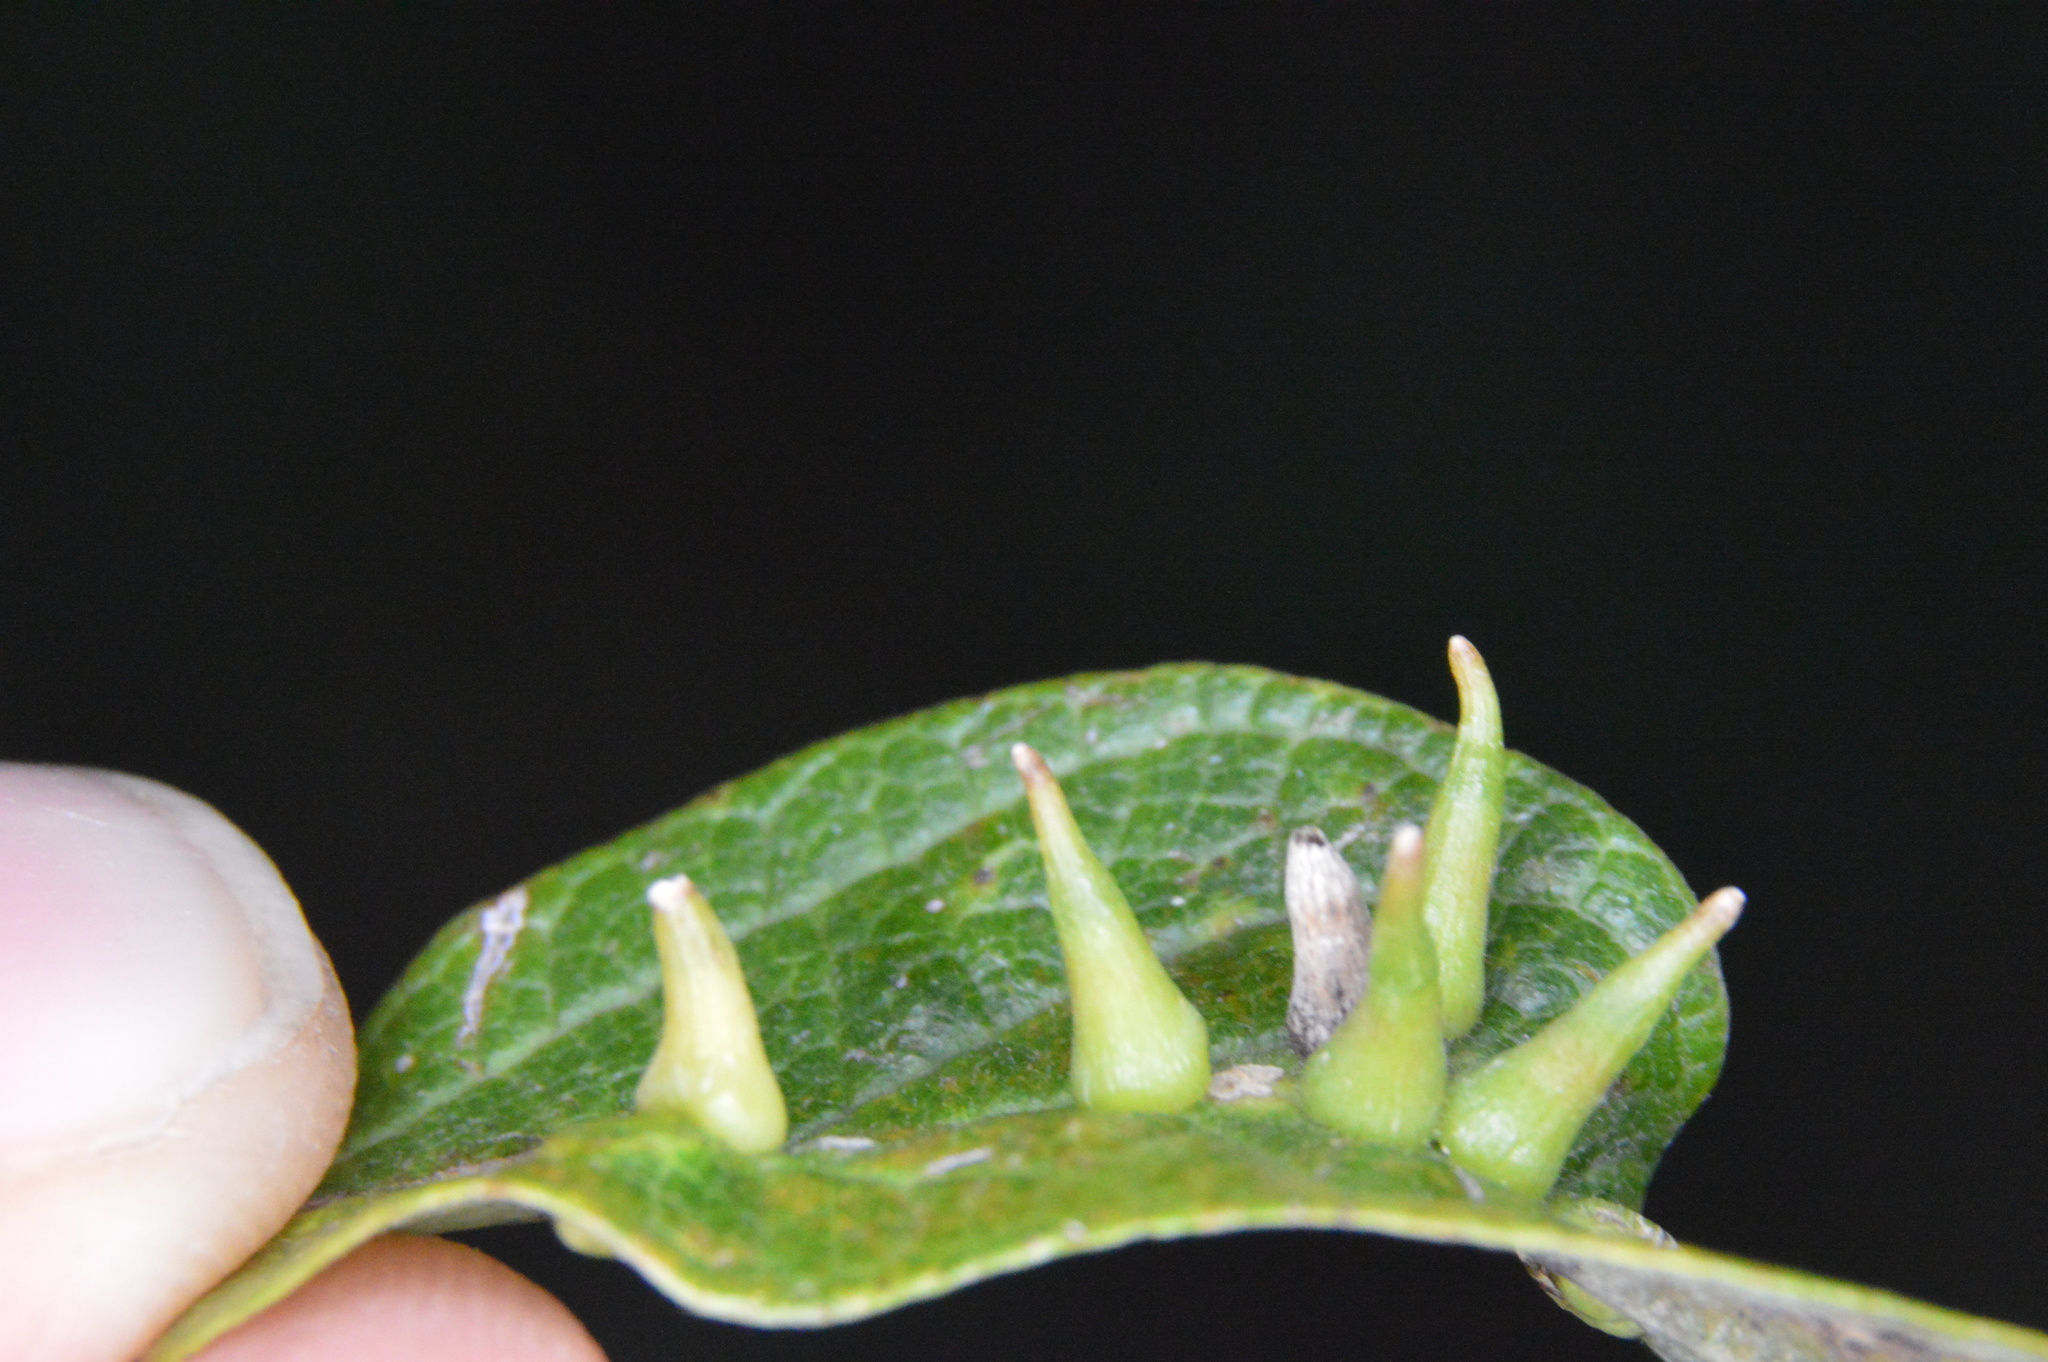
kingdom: Animalia
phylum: Arthropoda
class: Insecta
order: Diptera
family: Cecidomyiidae
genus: Celticecis
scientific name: Celticecis subulata
